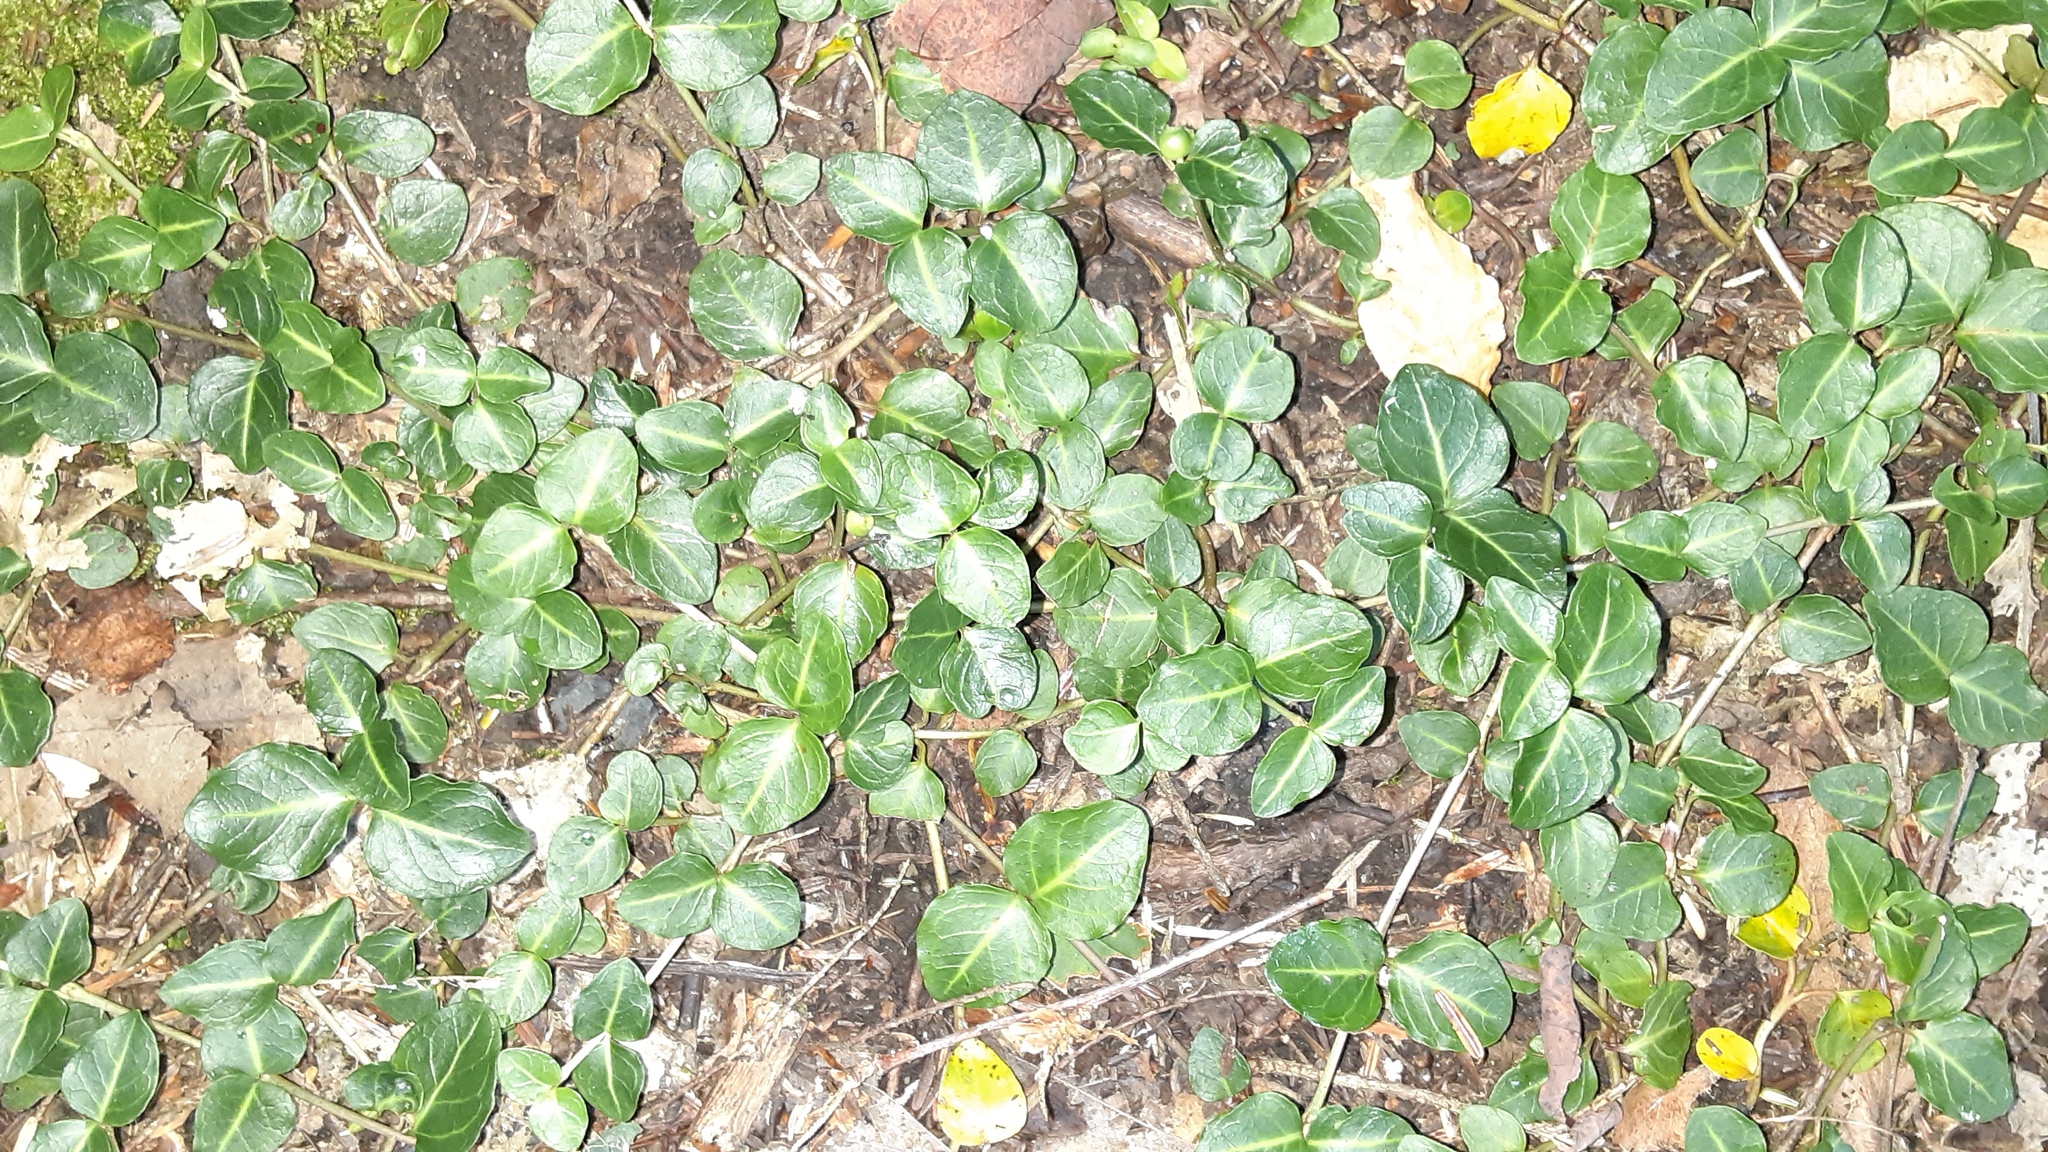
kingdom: Plantae
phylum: Tracheophyta
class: Magnoliopsida
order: Gentianales
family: Rubiaceae
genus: Mitchella
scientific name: Mitchella repens
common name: Partridge-berry
